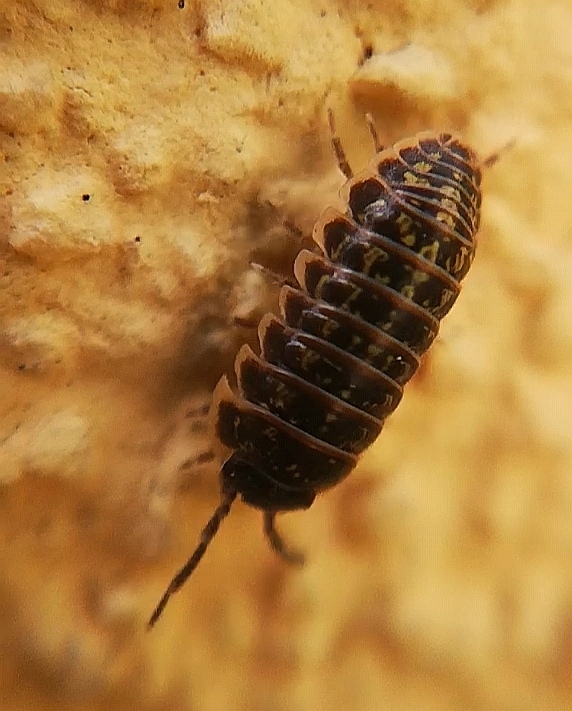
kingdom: Animalia
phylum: Arthropoda
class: Malacostraca
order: Isopoda
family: Armadillidiidae
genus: Armadillidium
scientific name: Armadillidium versicolor
